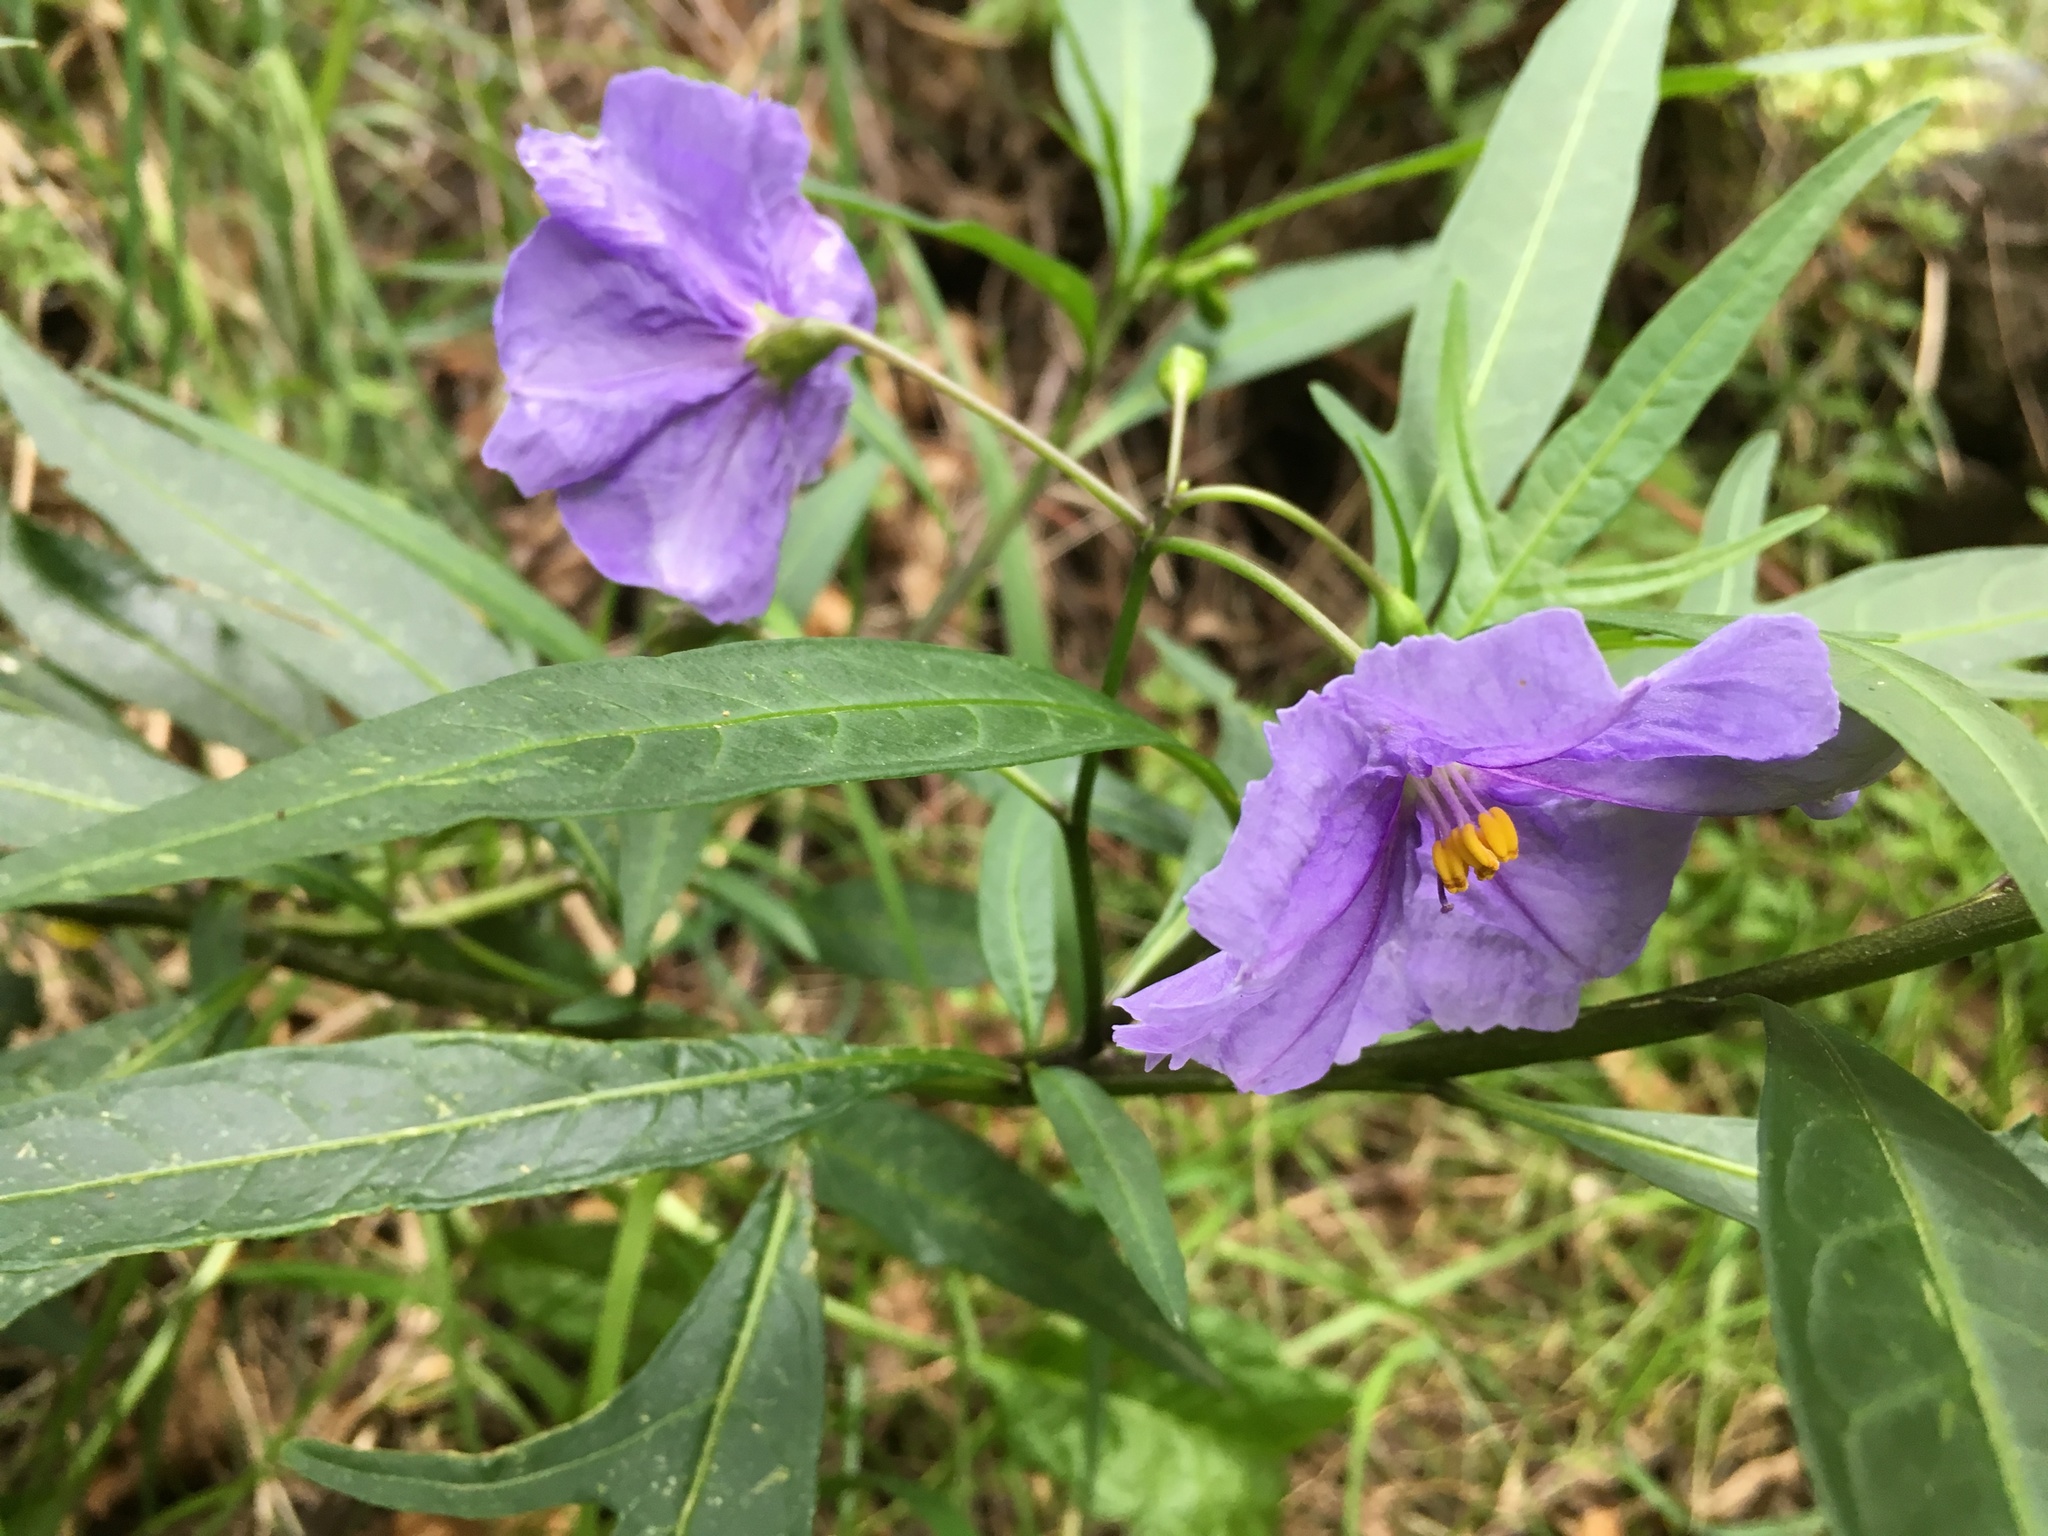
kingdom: Plantae
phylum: Tracheophyta
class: Magnoliopsida
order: Solanales
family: Solanaceae
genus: Solanum
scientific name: Solanum laciniatum
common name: Kangaroo-apple
